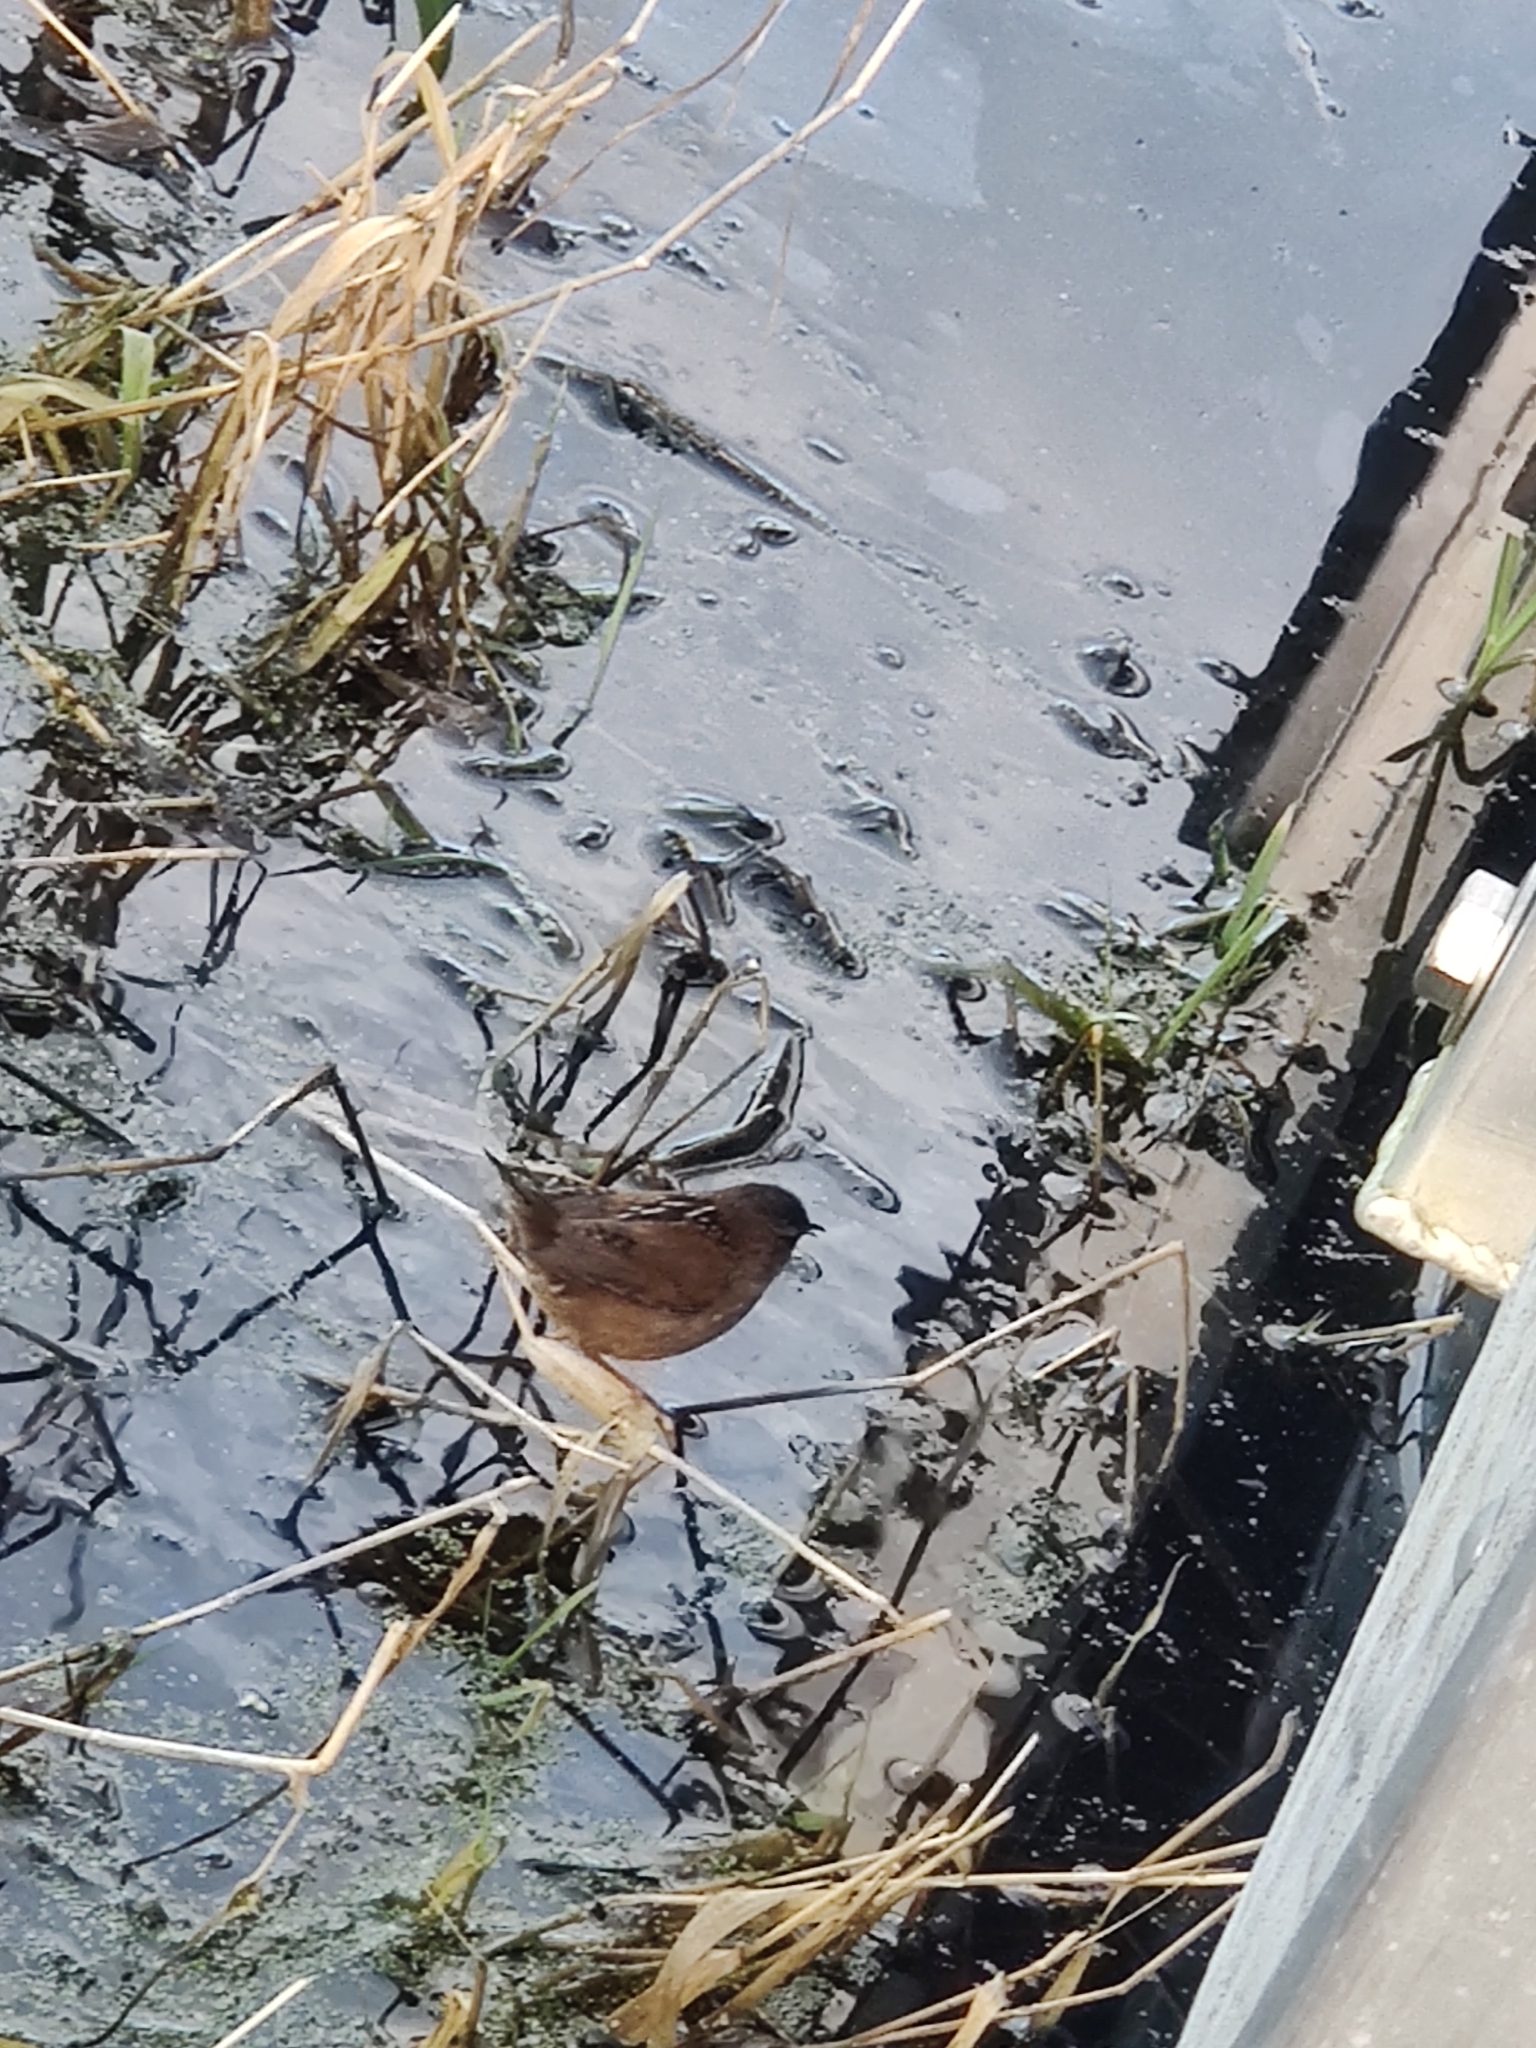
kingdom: Animalia
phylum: Chordata
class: Aves
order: Passeriformes
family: Troglodytidae
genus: Cistothorus
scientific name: Cistothorus palustris
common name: Marsh wren
